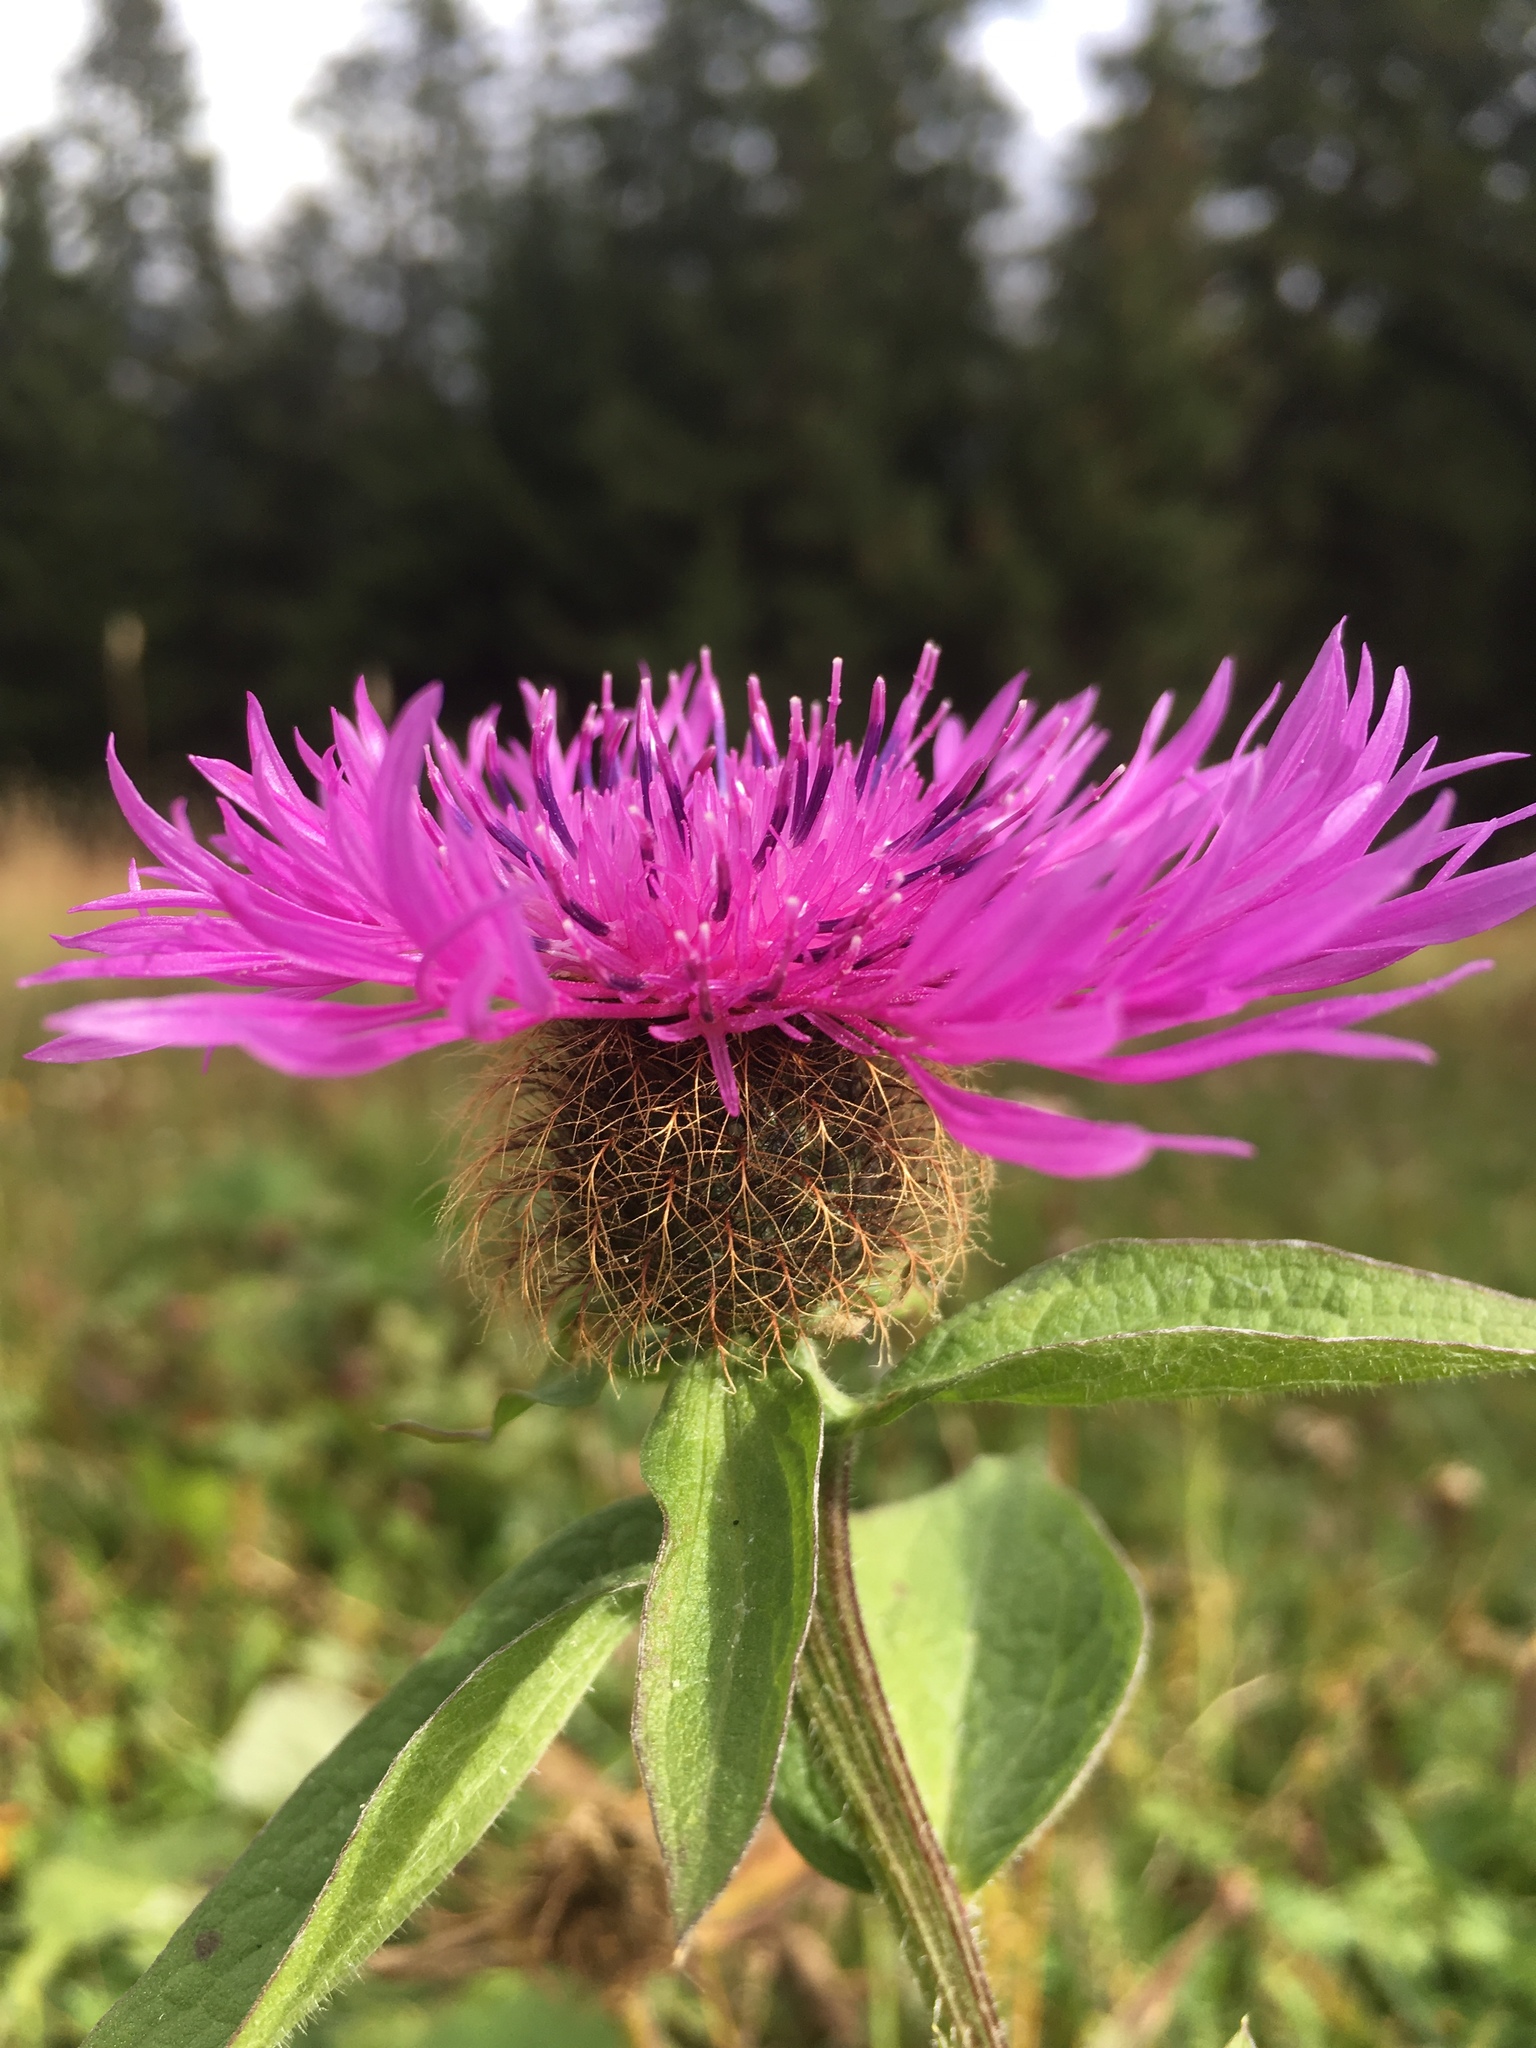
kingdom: Plantae
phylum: Tracheophyta
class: Magnoliopsida
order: Asterales
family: Asteraceae
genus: Centaurea
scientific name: Centaurea pseudophrygia
